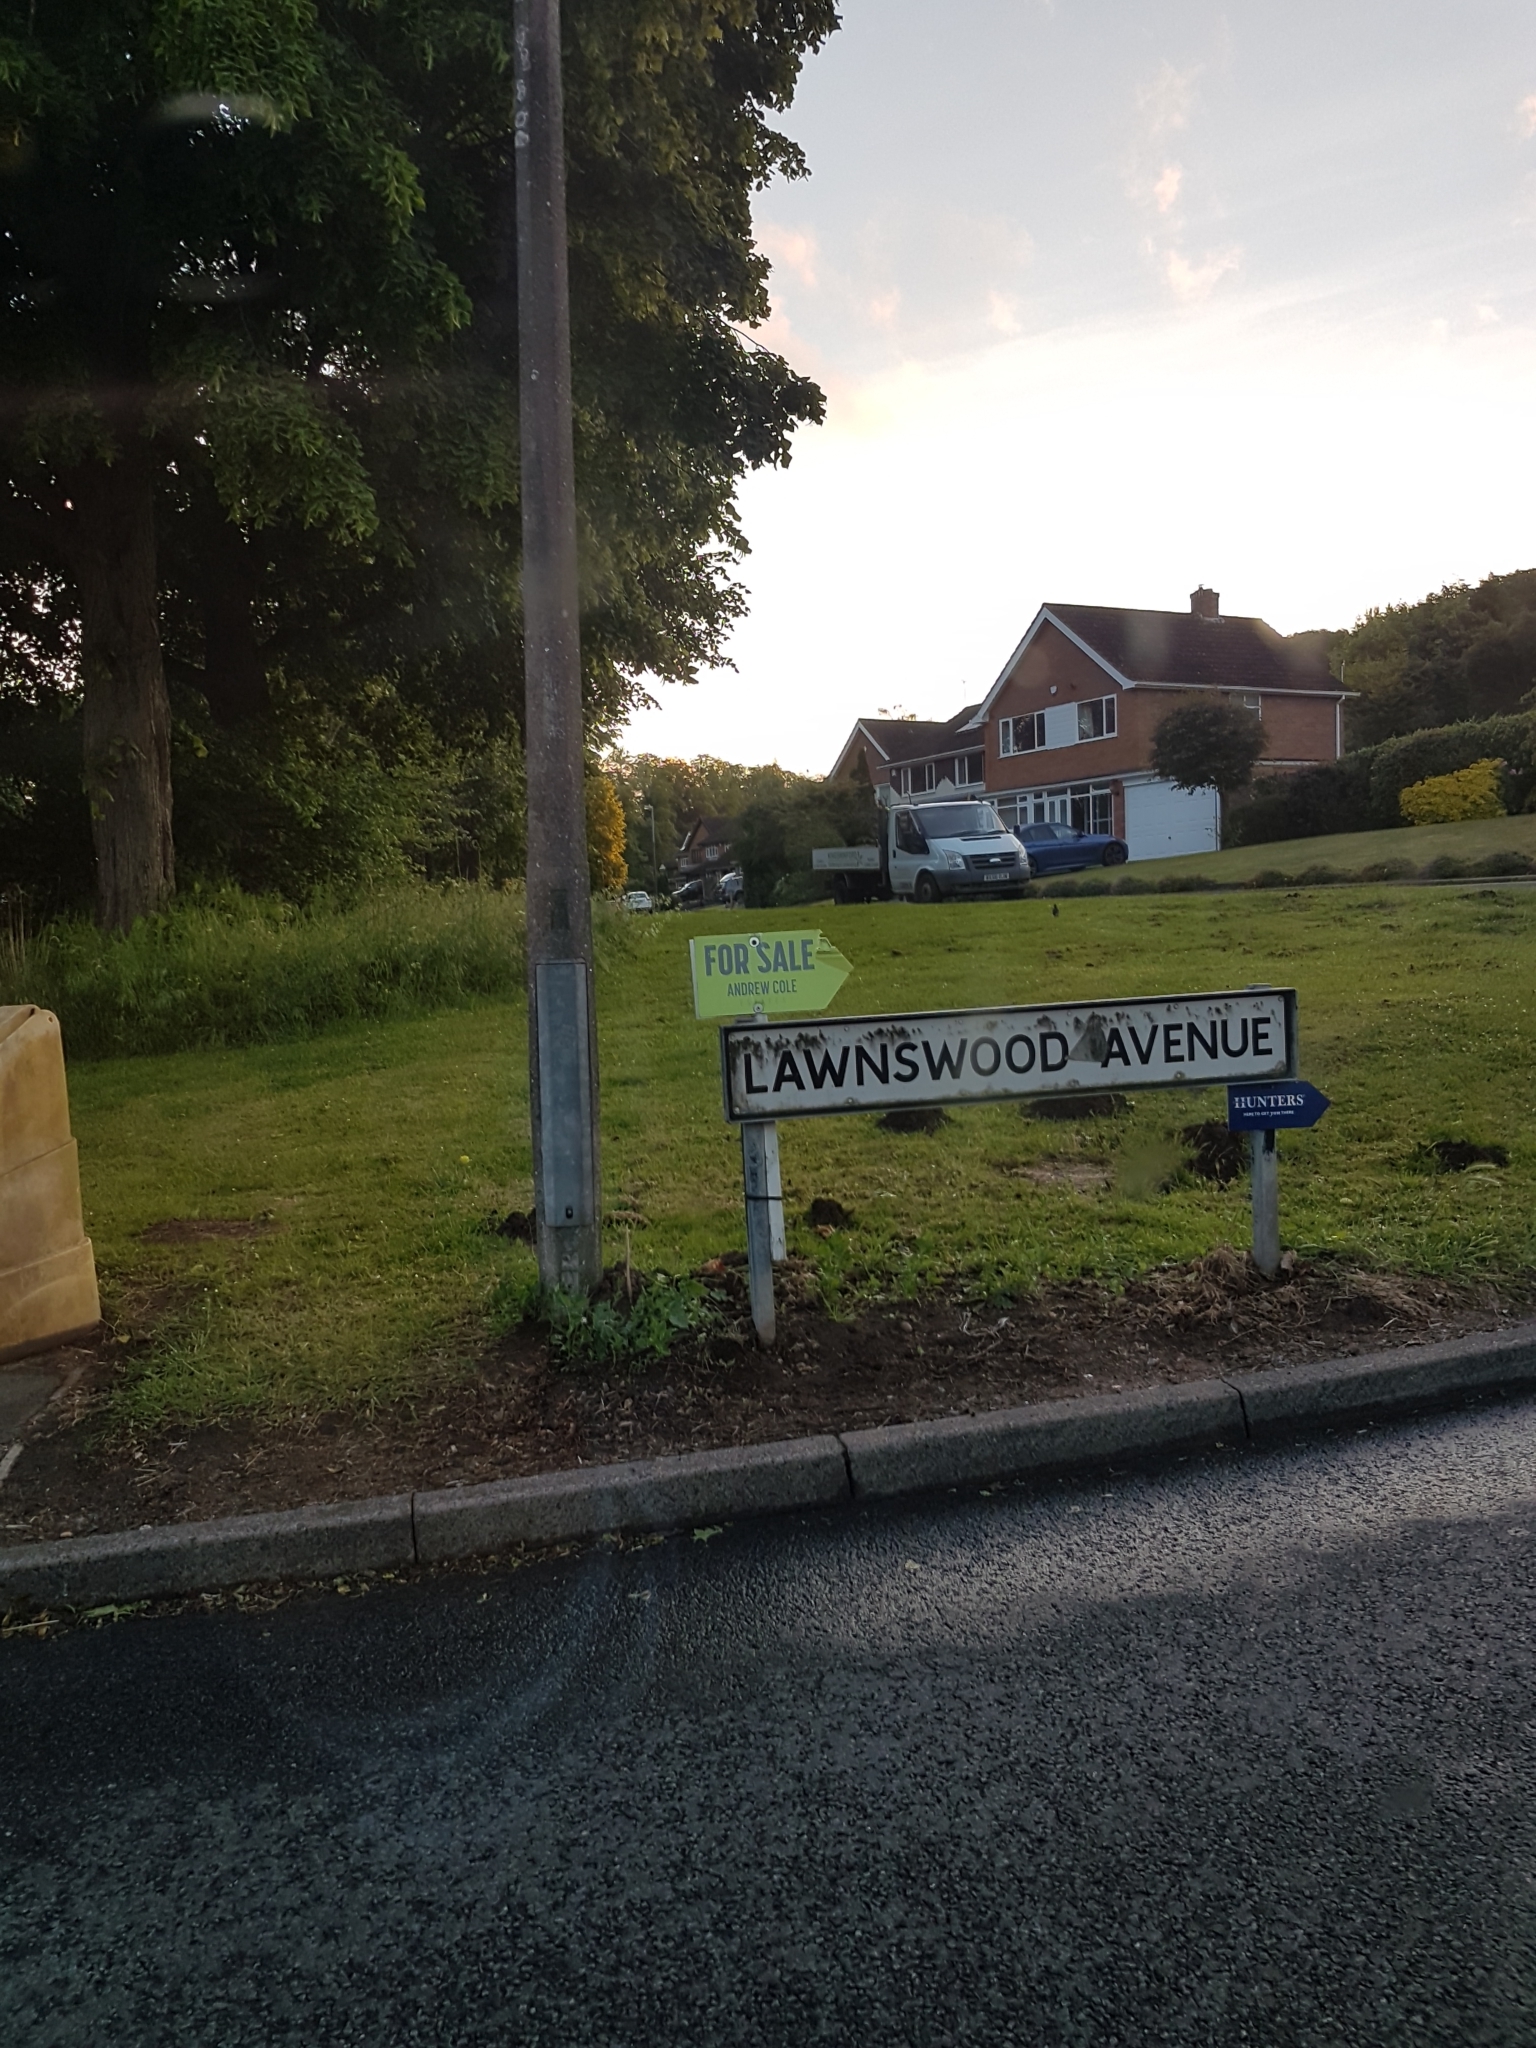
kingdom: Animalia
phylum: Chordata
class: Mammalia
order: Soricomorpha
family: Talpidae
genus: Talpa
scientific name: Talpa europaea
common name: European mole
